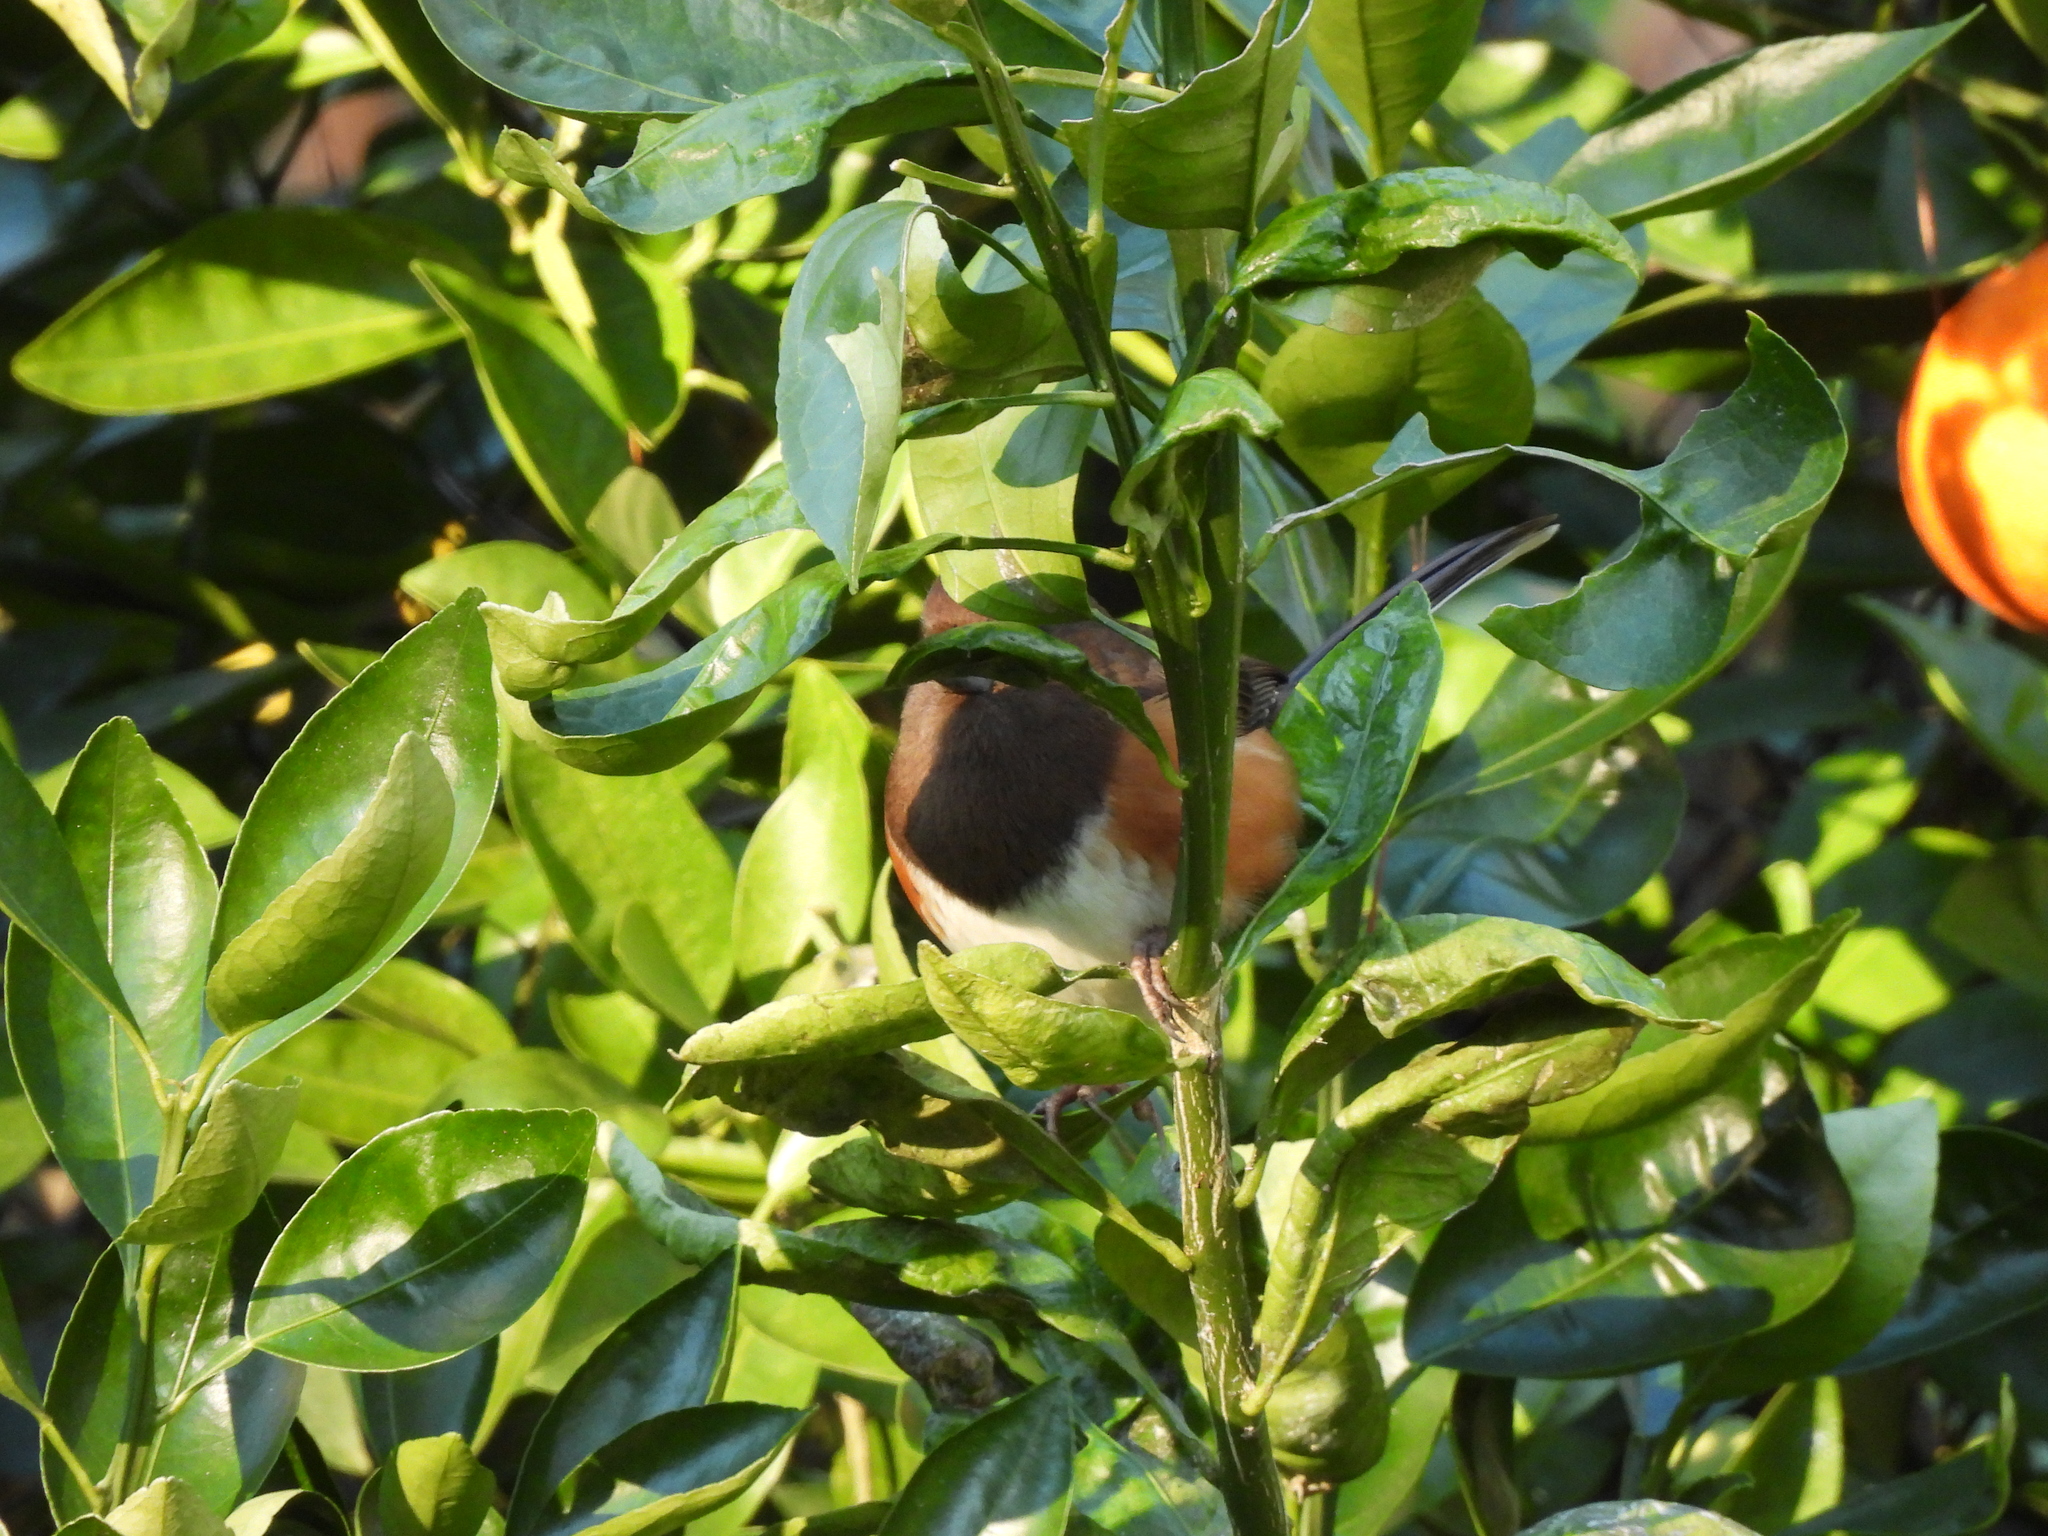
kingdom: Animalia
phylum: Chordata
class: Aves
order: Passeriformes
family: Passerellidae
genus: Pipilo
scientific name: Pipilo erythrophthalmus
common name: Eastern towhee
